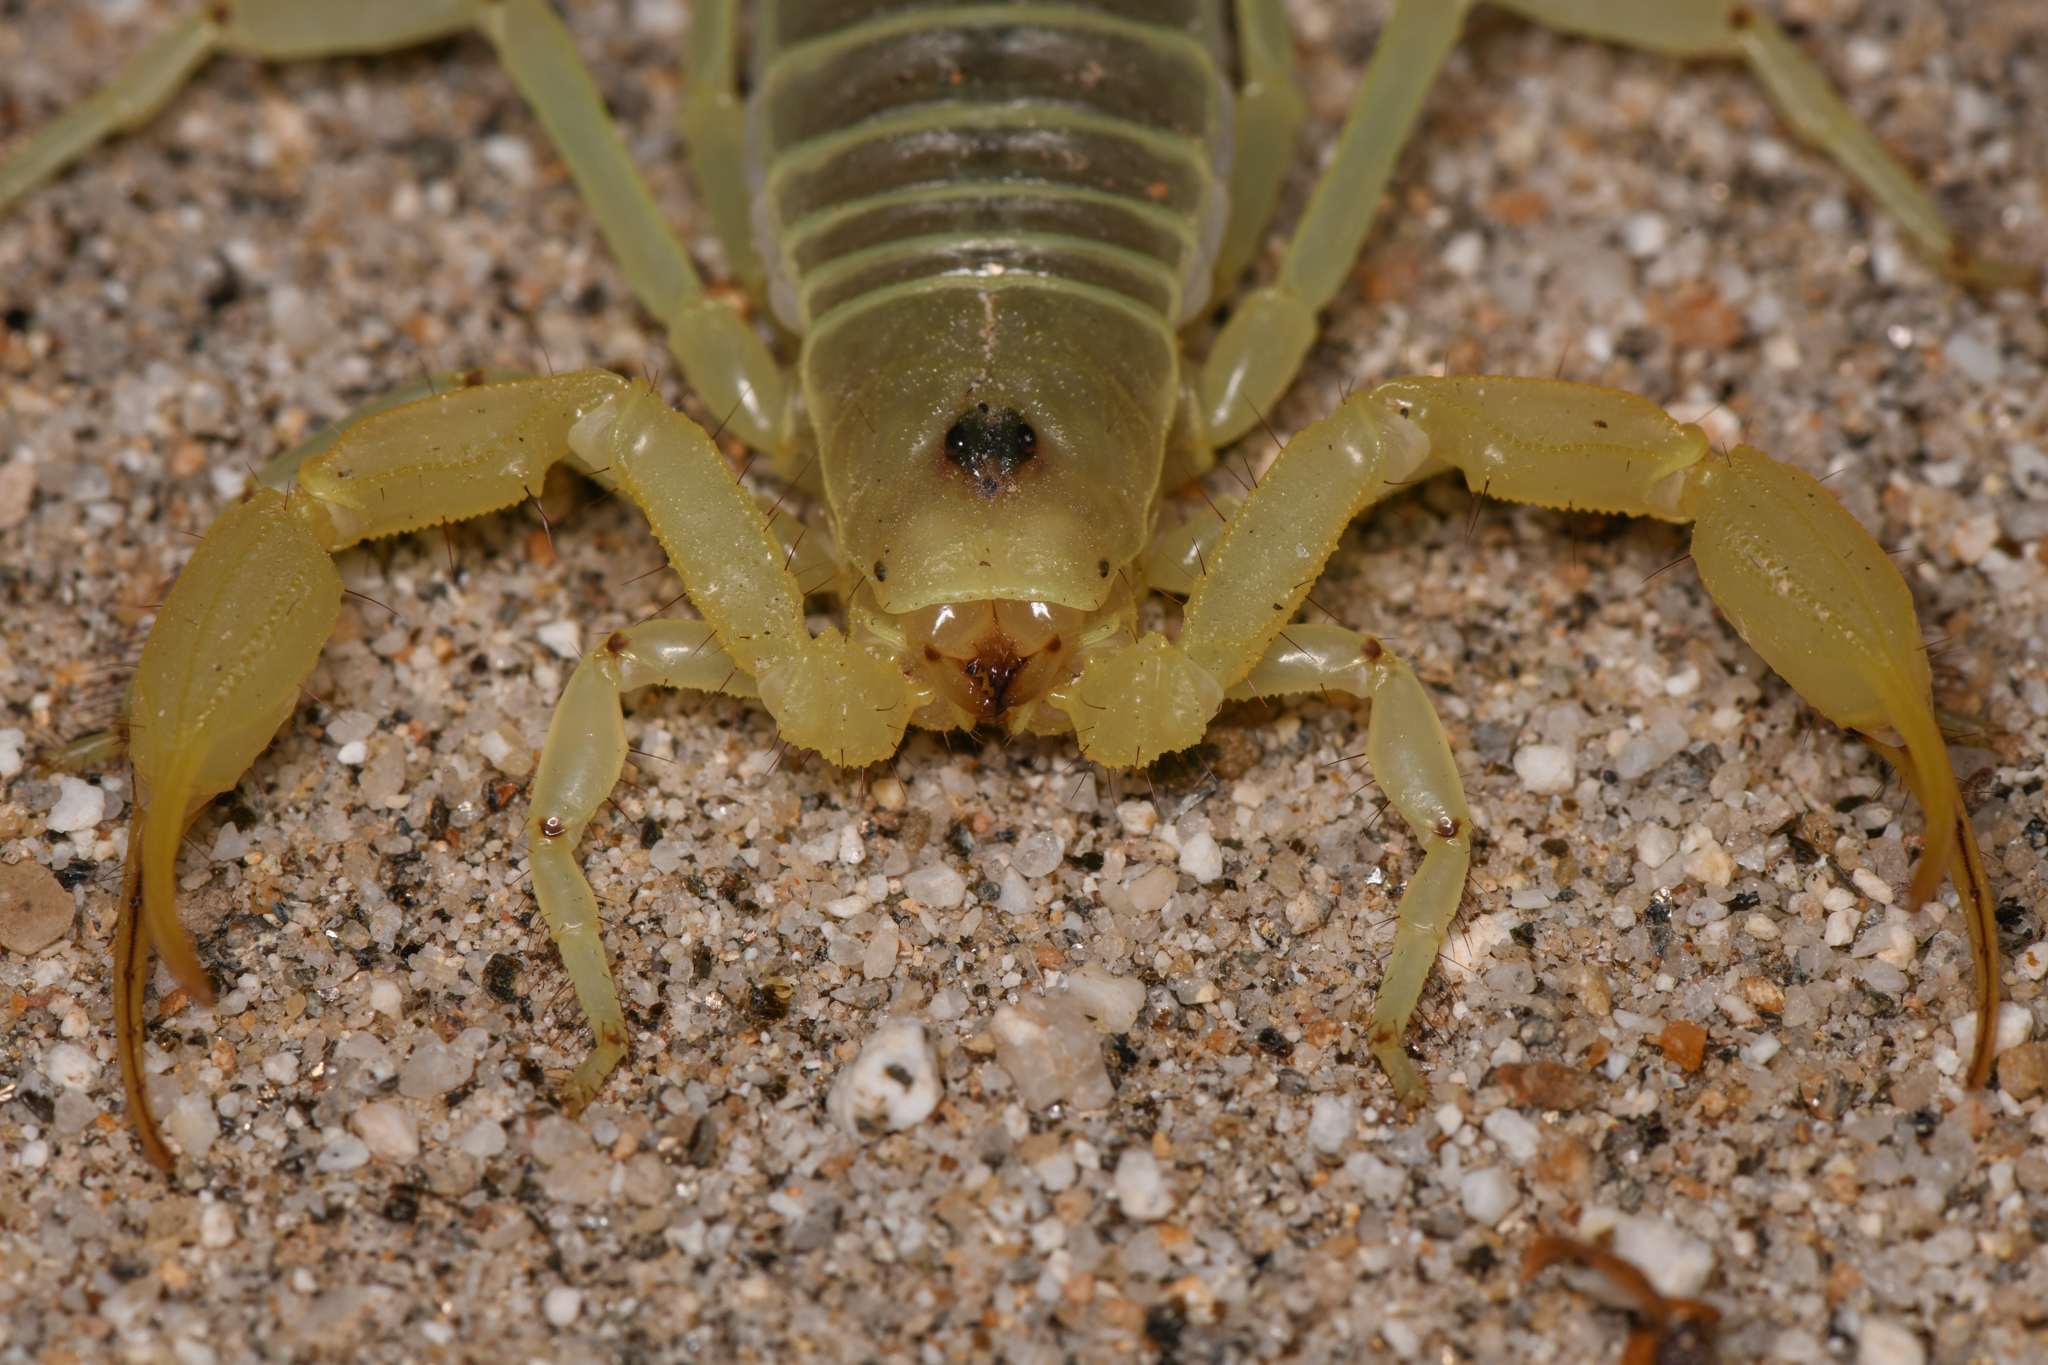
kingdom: Animalia
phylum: Arthropoda
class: Arachnida
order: Scorpiones
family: Vaejovidae
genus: Smeringurus
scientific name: Smeringurus mesaensis
